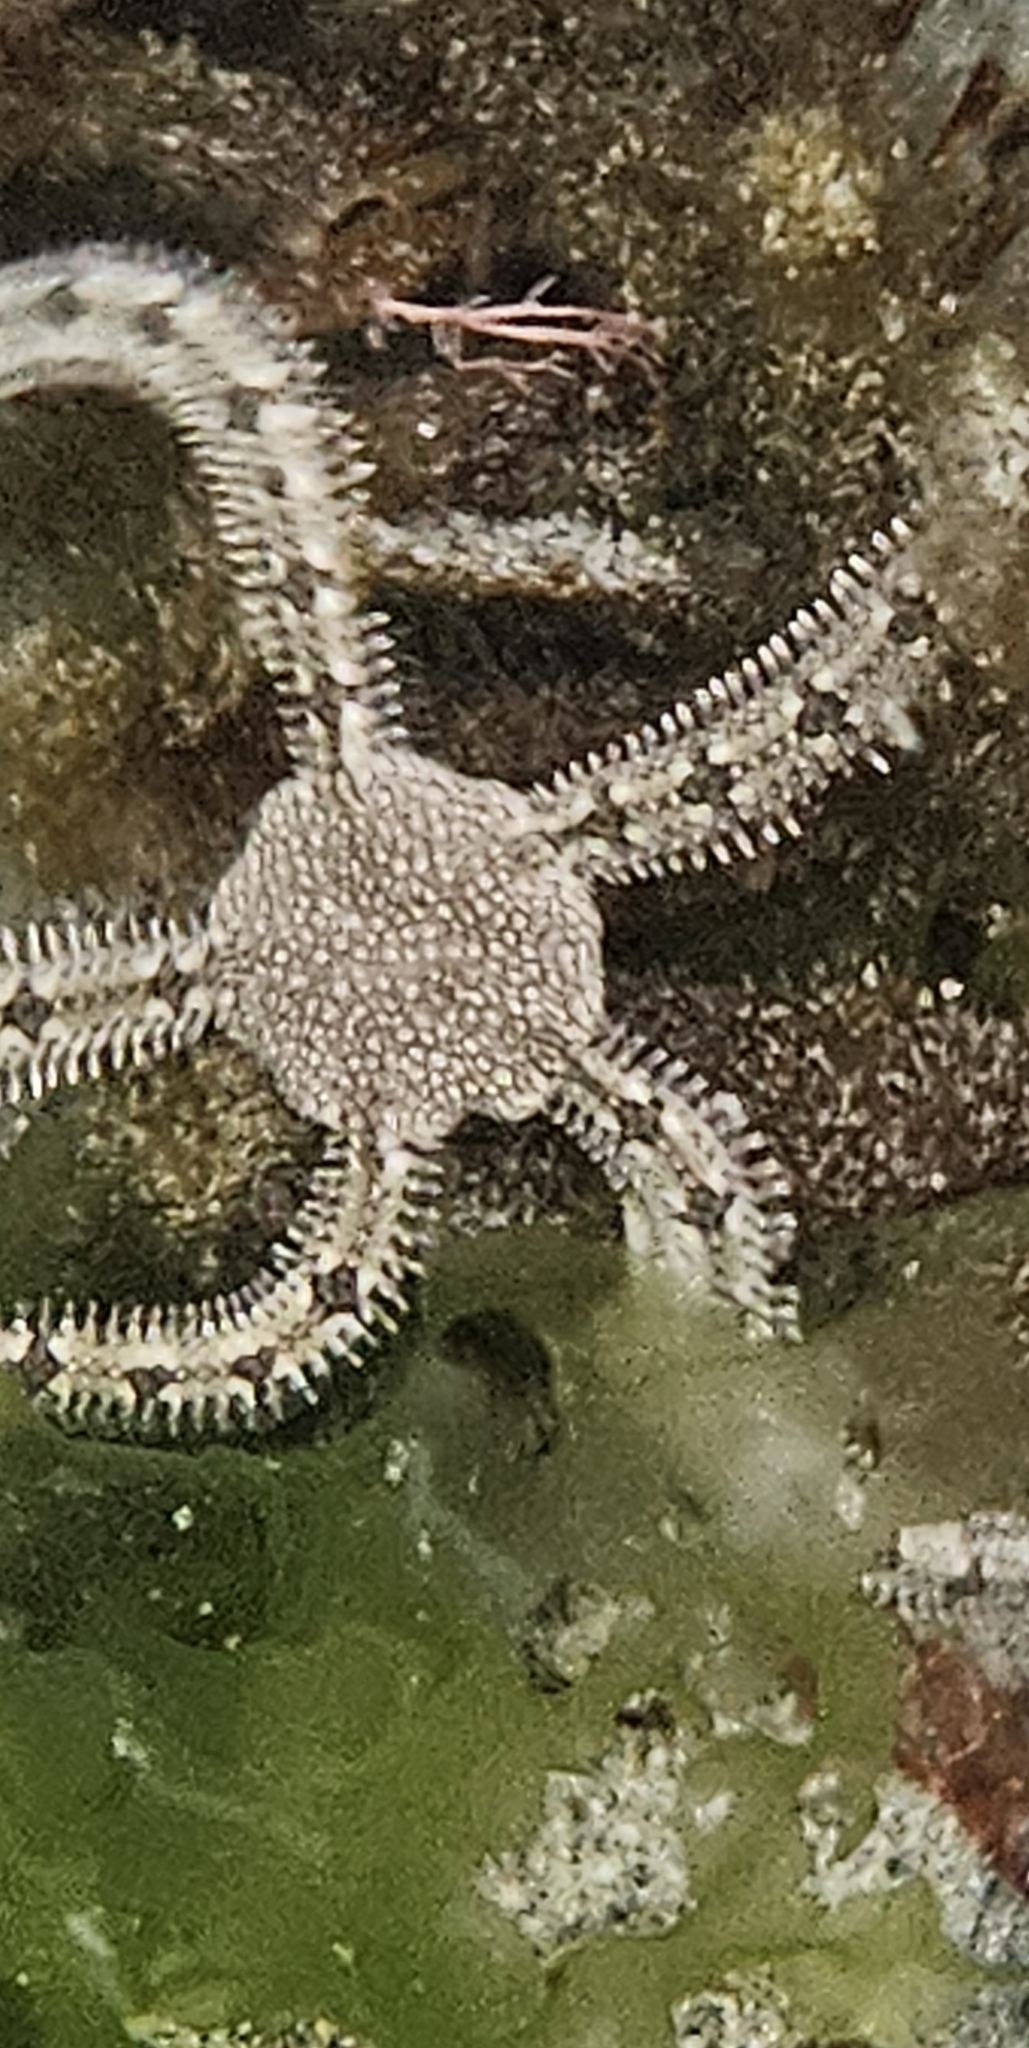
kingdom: Animalia
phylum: Echinodermata
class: Ophiuroidea
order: Amphilepidida
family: Ophionereididae
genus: Ophionereis
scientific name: Ophionereis annulata
